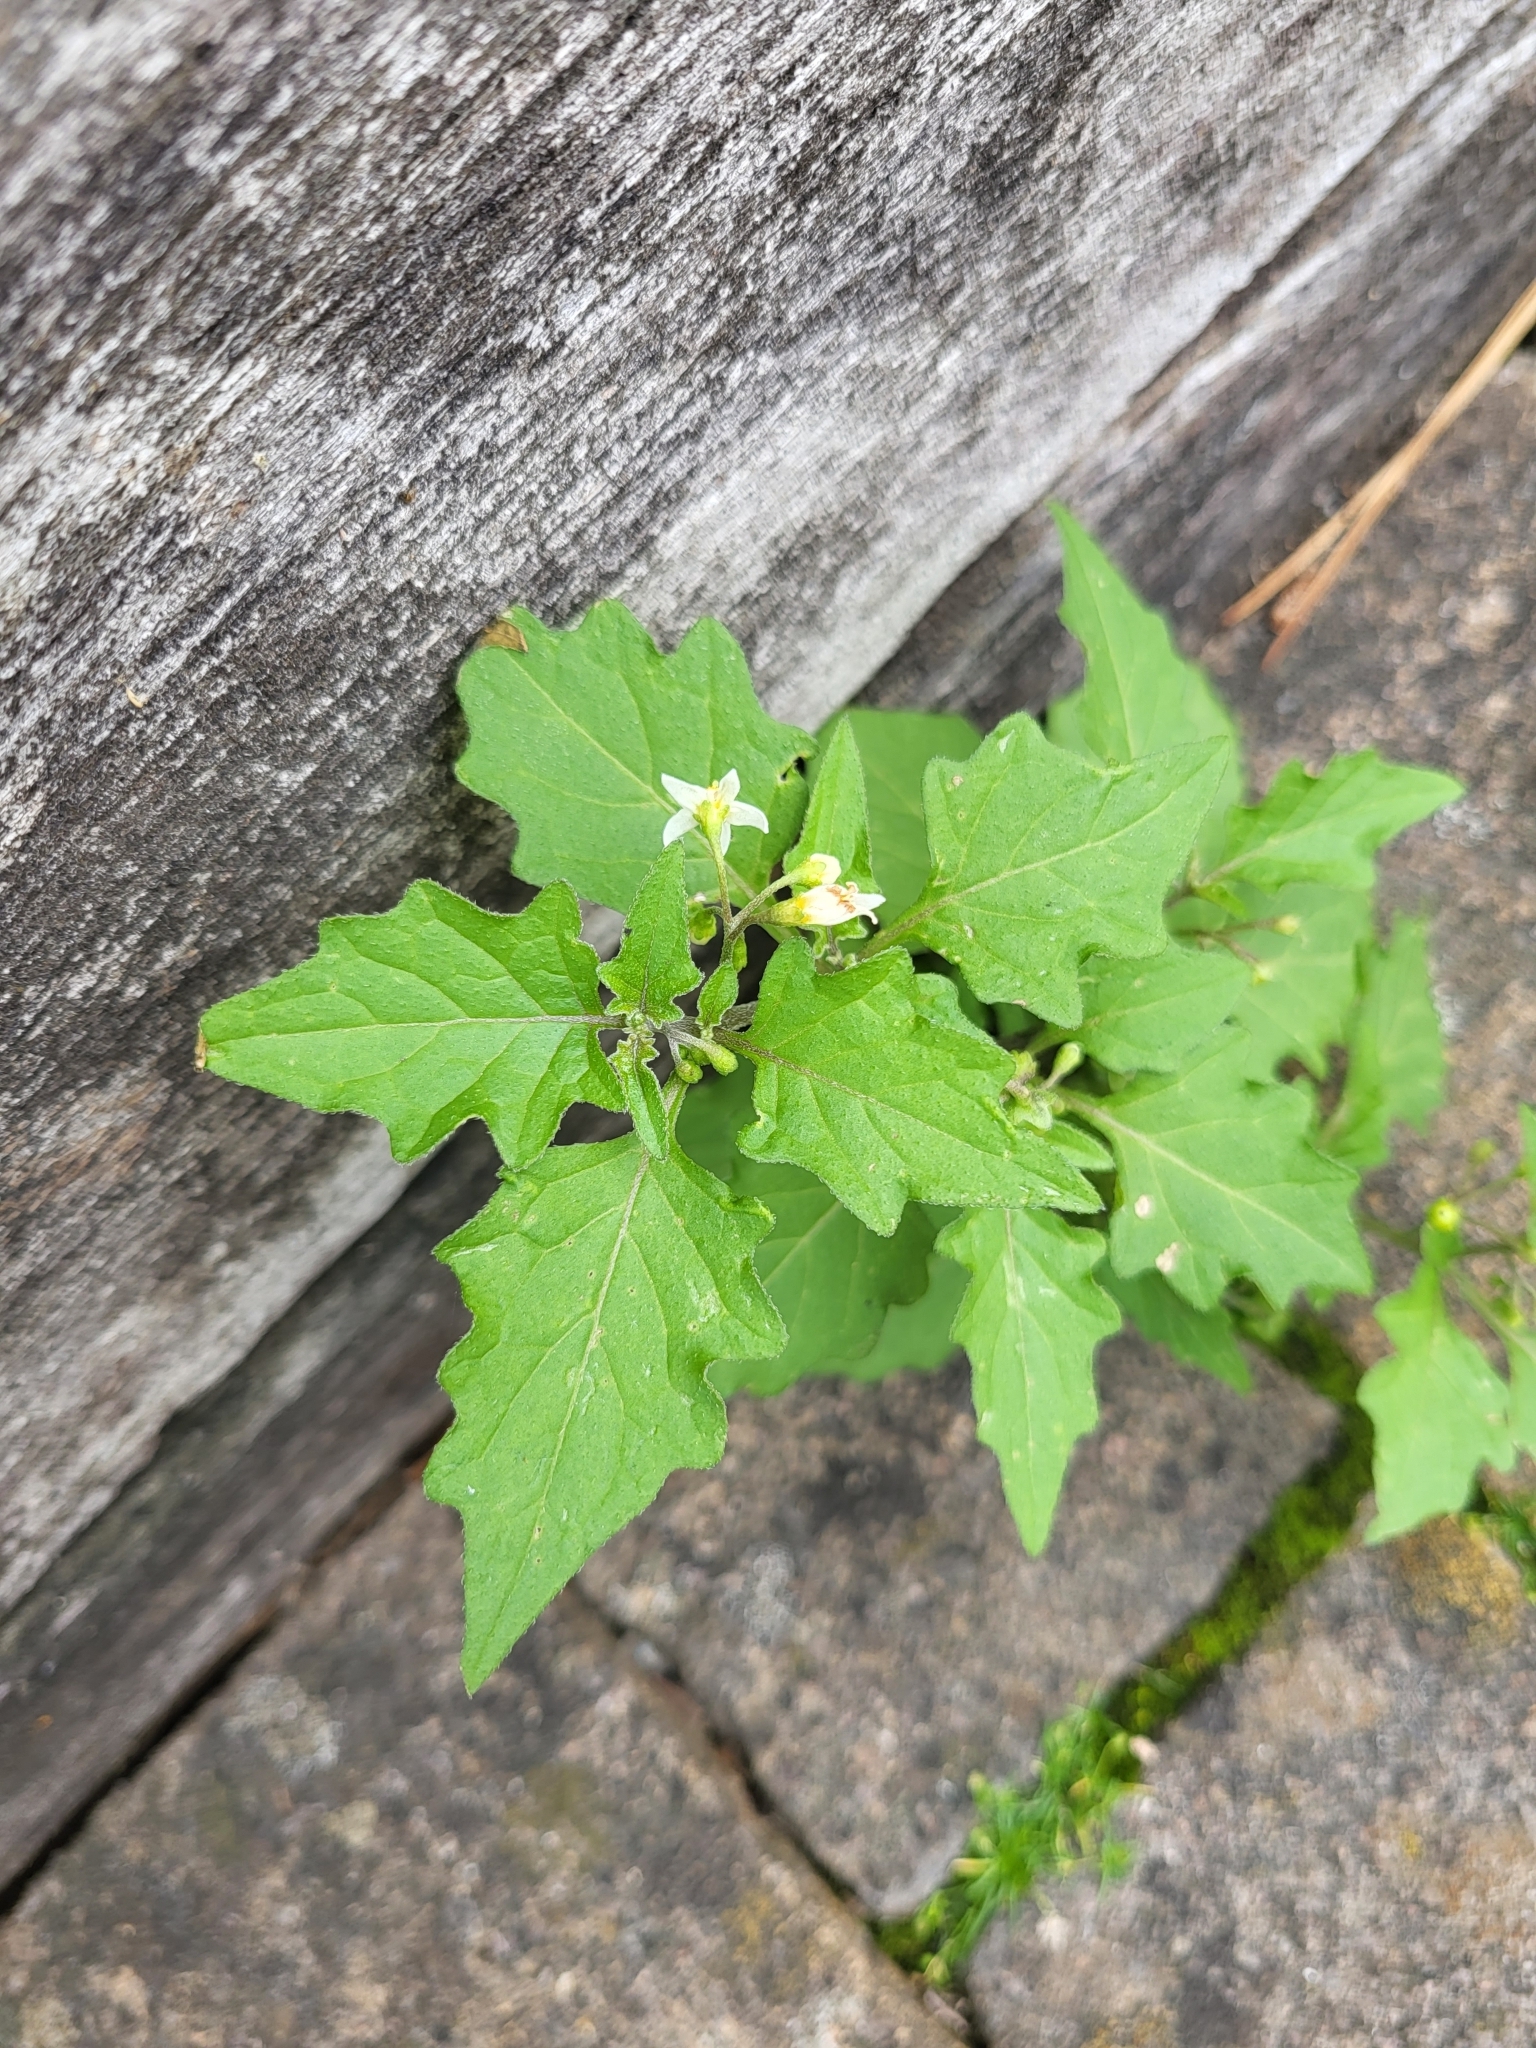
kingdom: Plantae
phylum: Tracheophyta
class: Magnoliopsida
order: Solanales
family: Solanaceae
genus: Solanum
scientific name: Solanum nigrum
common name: Black nightshade
